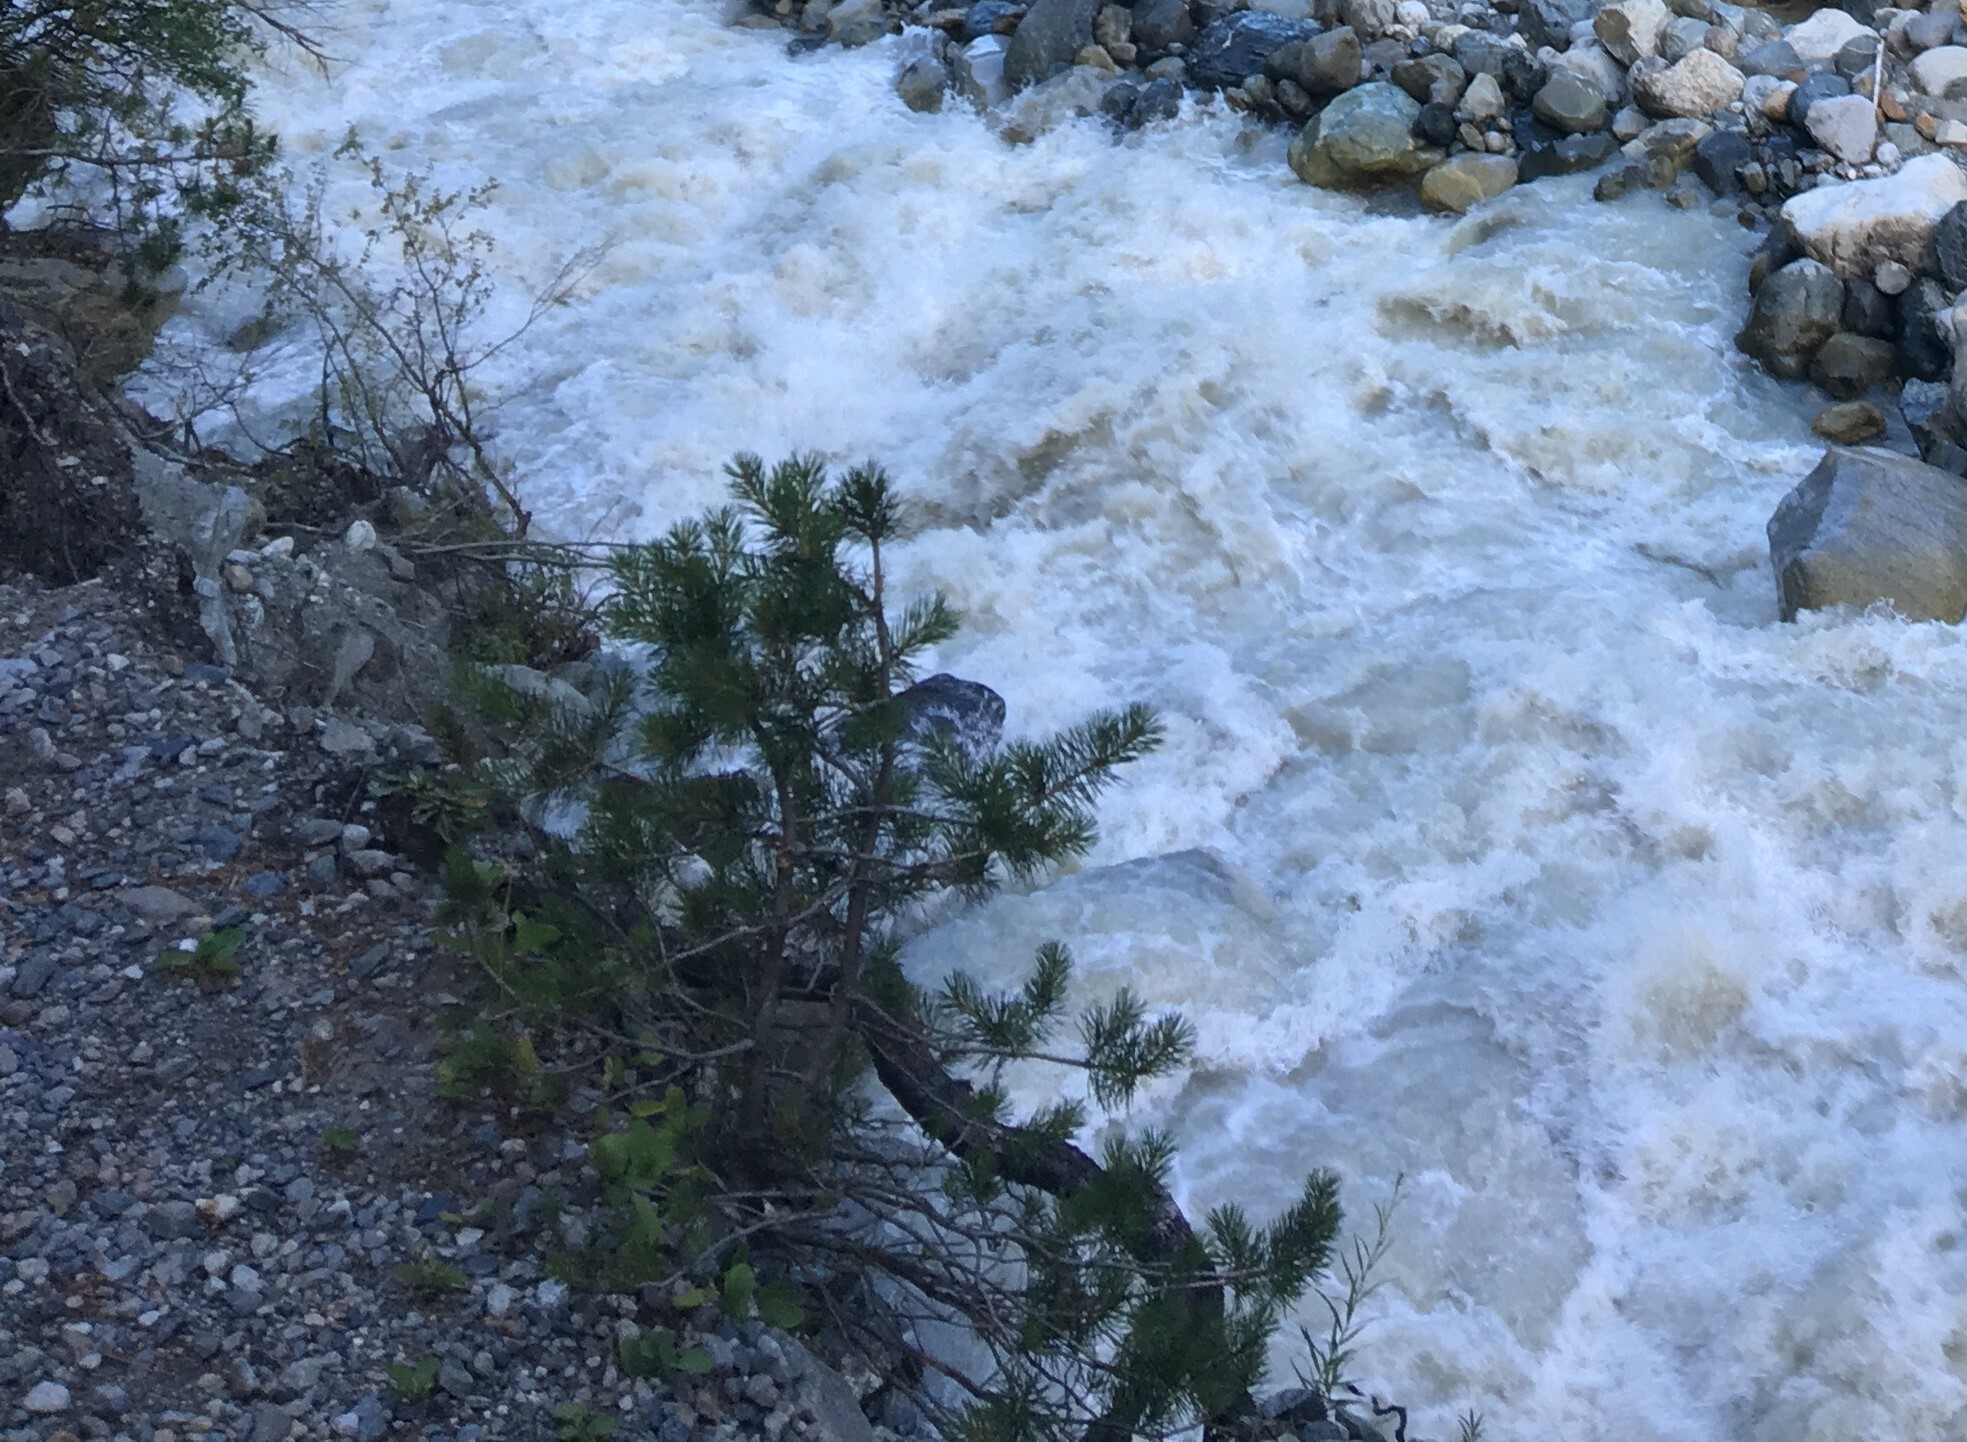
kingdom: Plantae
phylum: Tracheophyta
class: Pinopsida
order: Pinales
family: Pinaceae
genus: Pinus
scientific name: Pinus sylvestris
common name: Scots pine
